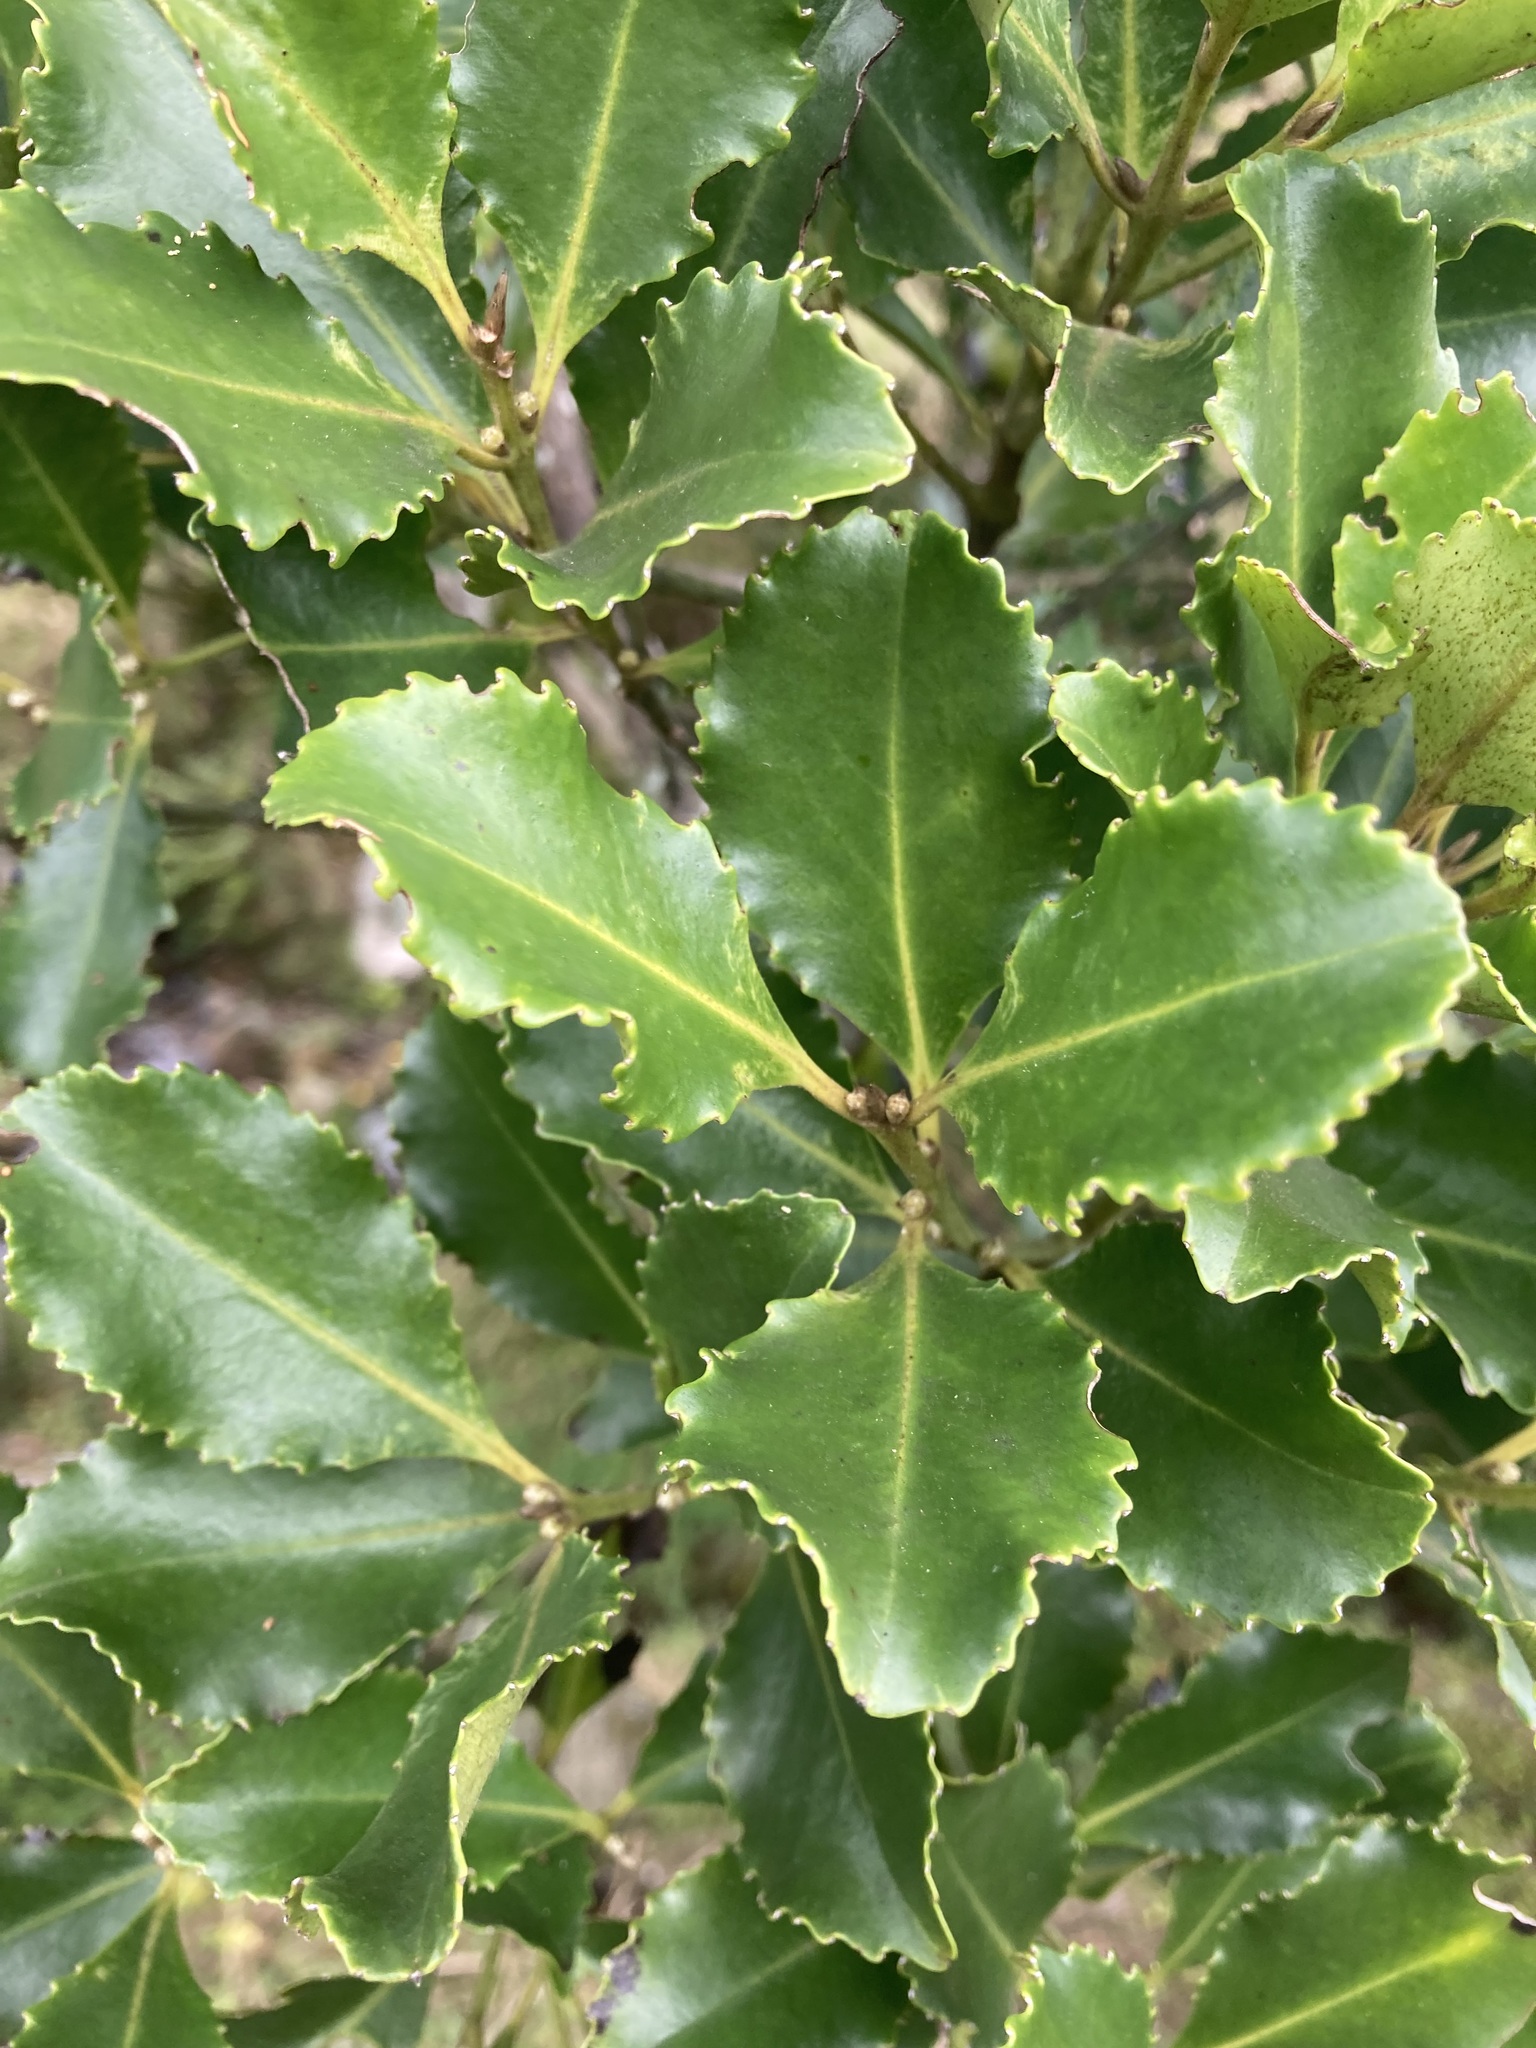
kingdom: Plantae
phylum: Tracheophyta
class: Magnoliopsida
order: Laurales
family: Atherospermataceae
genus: Laurelia
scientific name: Laurelia novae-zelandiae
